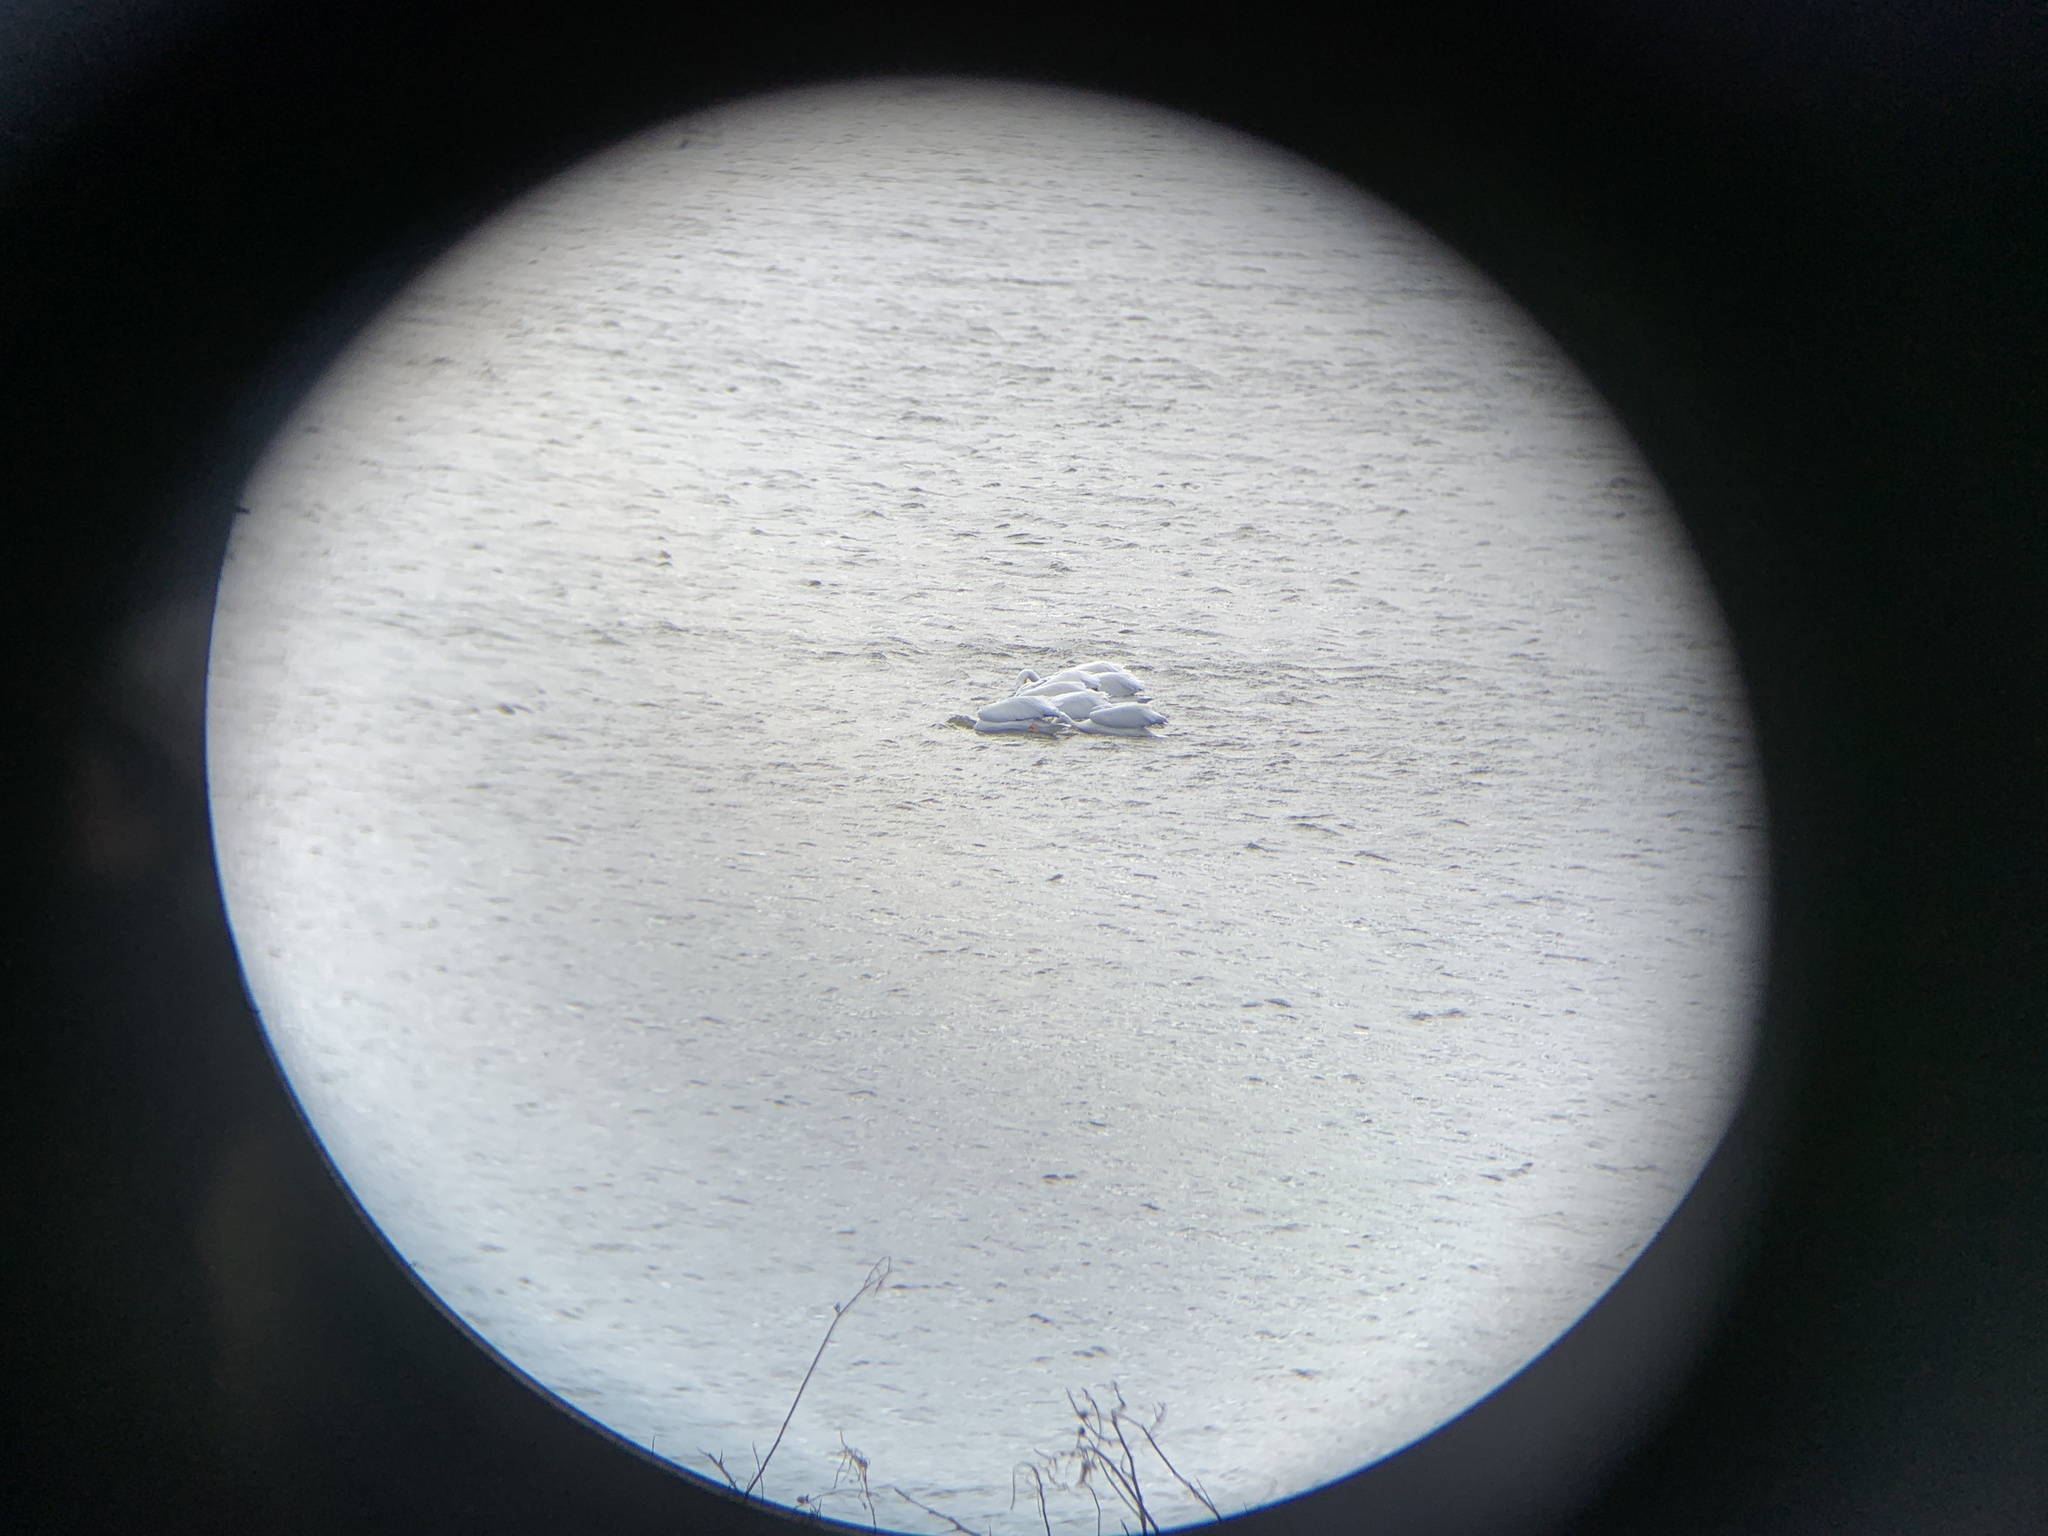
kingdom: Animalia
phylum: Chordata
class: Aves
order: Pelecaniformes
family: Pelecanidae
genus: Pelecanus
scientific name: Pelecanus erythrorhynchos
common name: American white pelican
